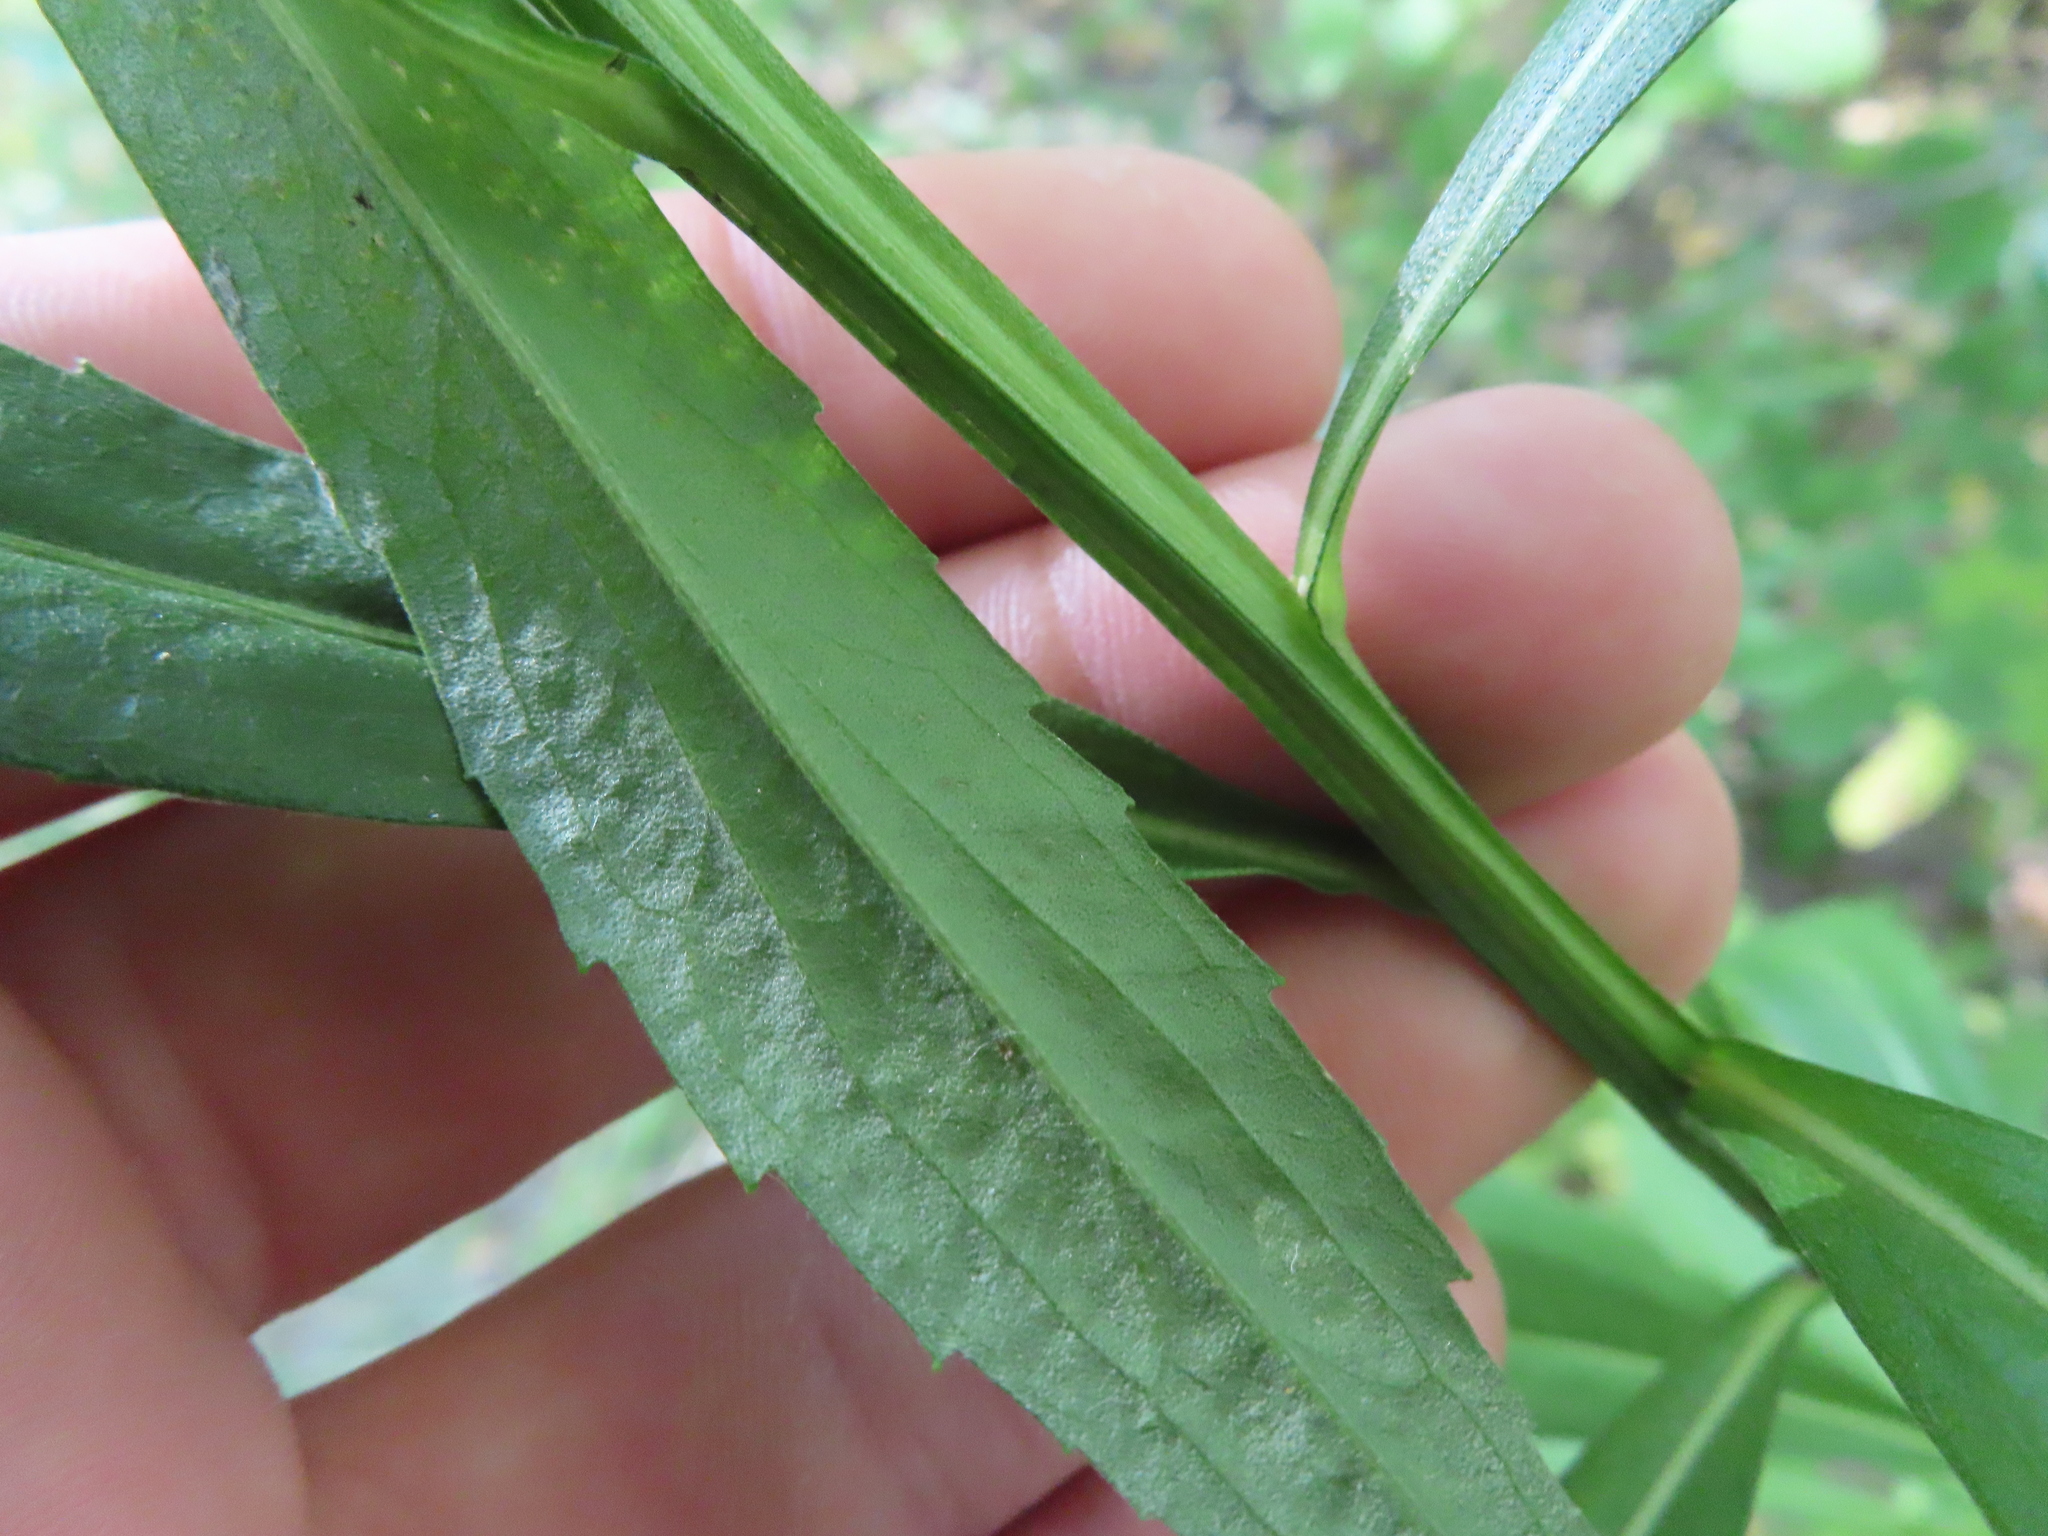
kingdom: Plantae
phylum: Tracheophyta
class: Magnoliopsida
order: Asterales
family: Asteraceae
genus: Helenium
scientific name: Helenium autumnale
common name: Sneezeweed
